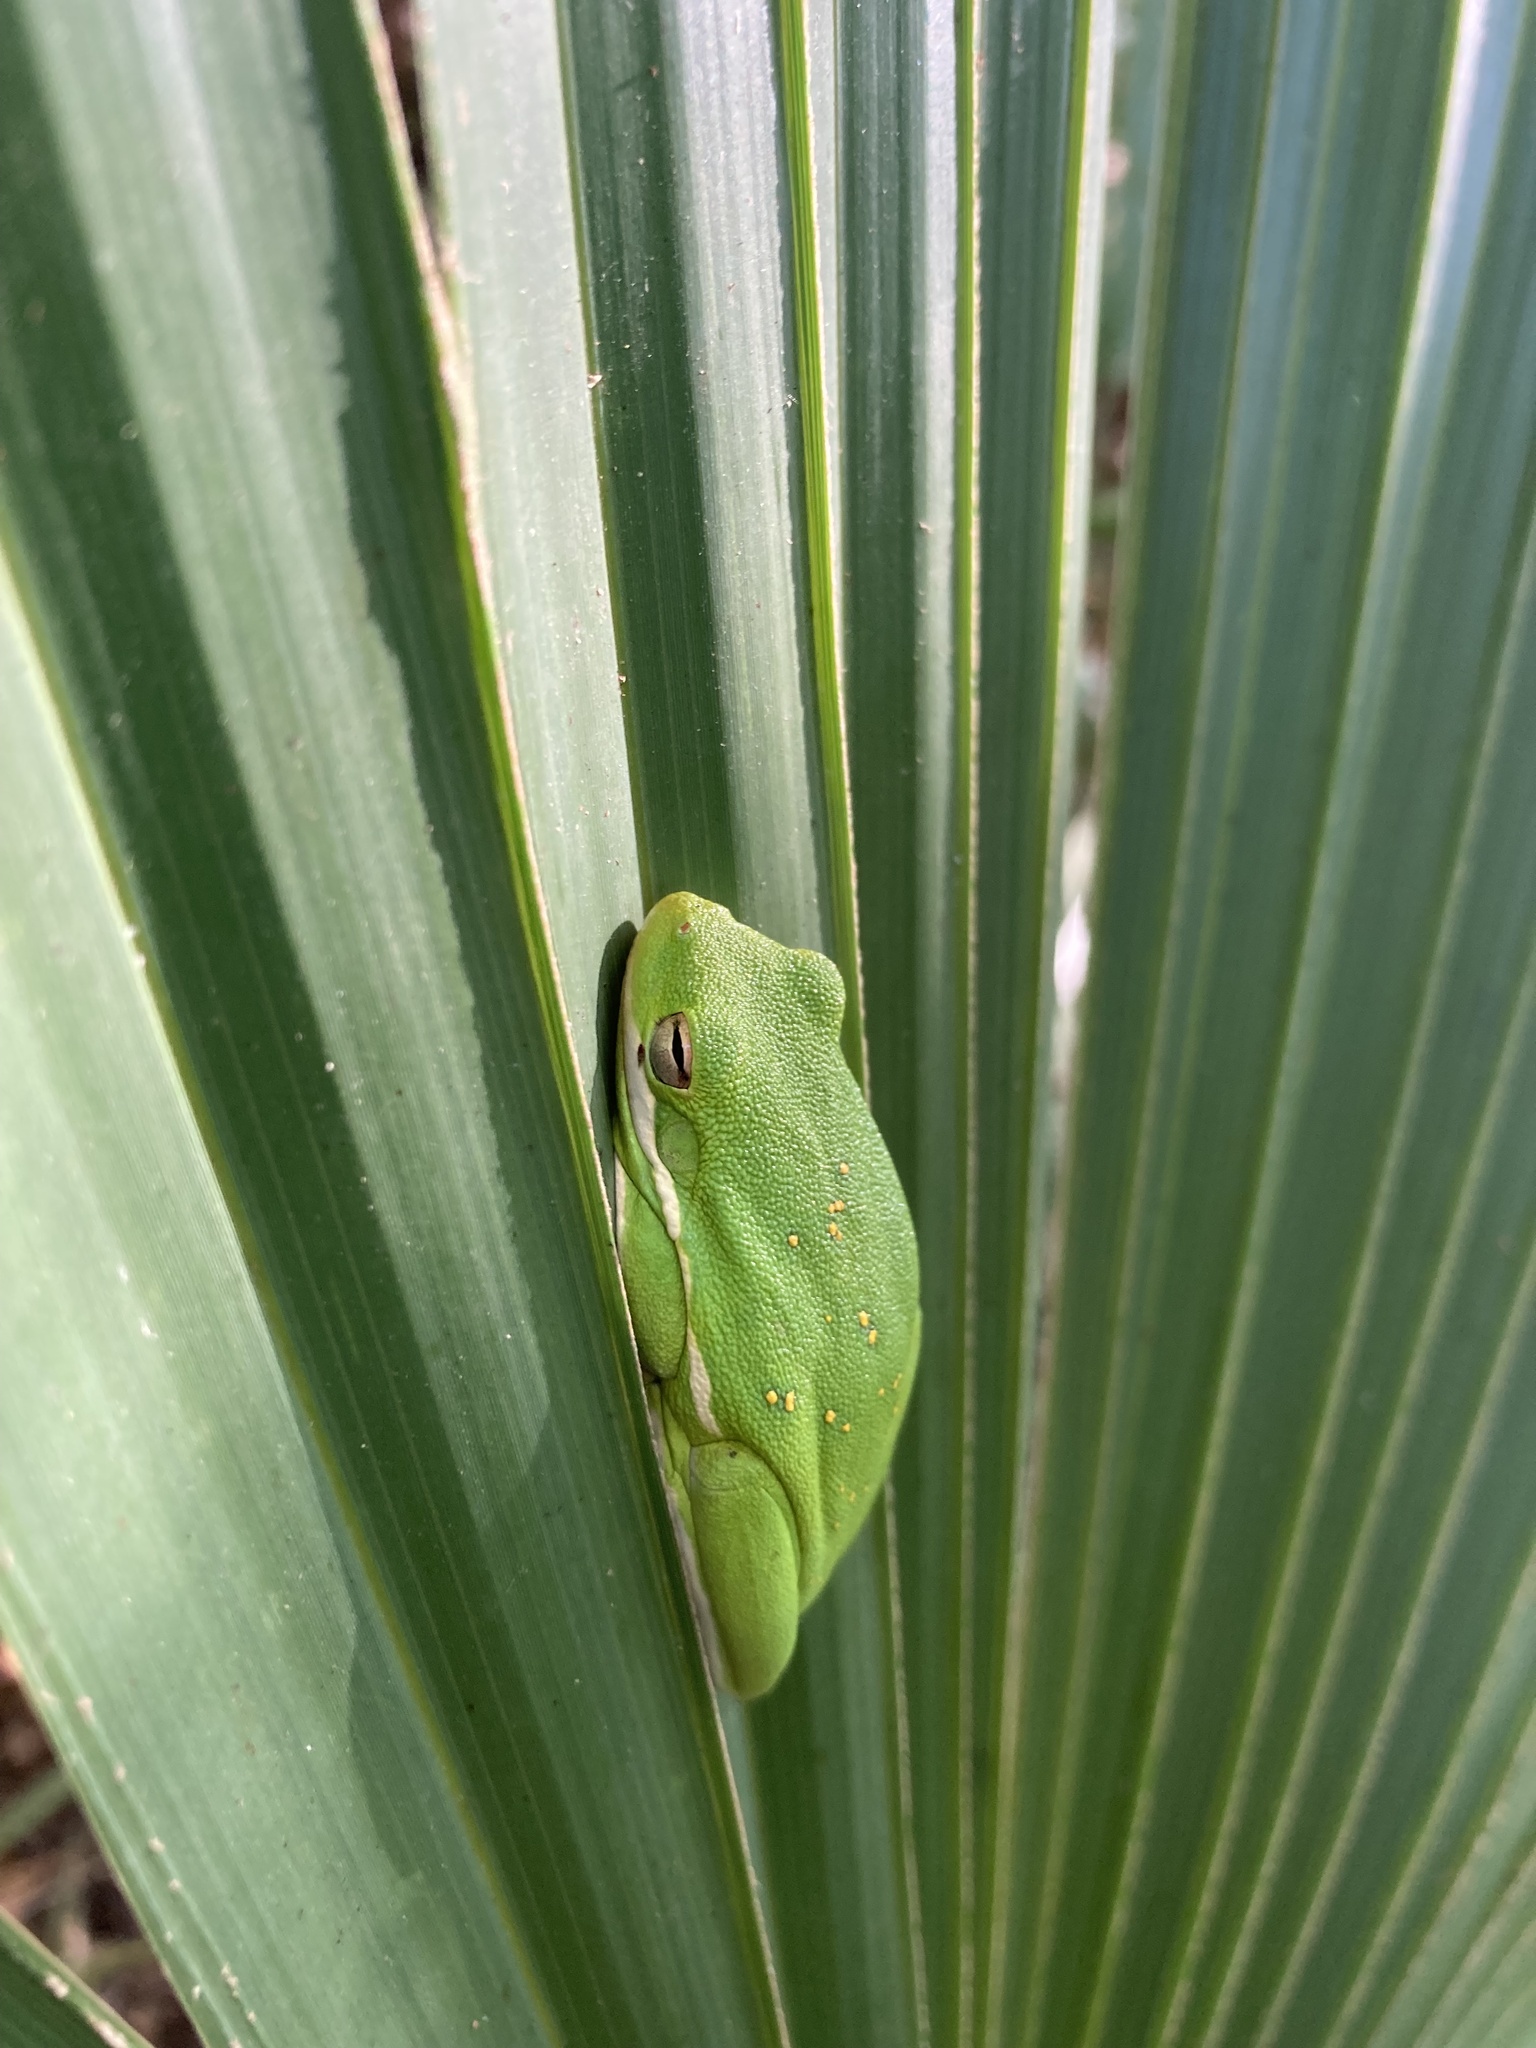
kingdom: Animalia
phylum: Chordata
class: Amphibia
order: Anura
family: Hylidae
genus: Dryophytes
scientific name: Dryophytes cinereus
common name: Green treefrog
